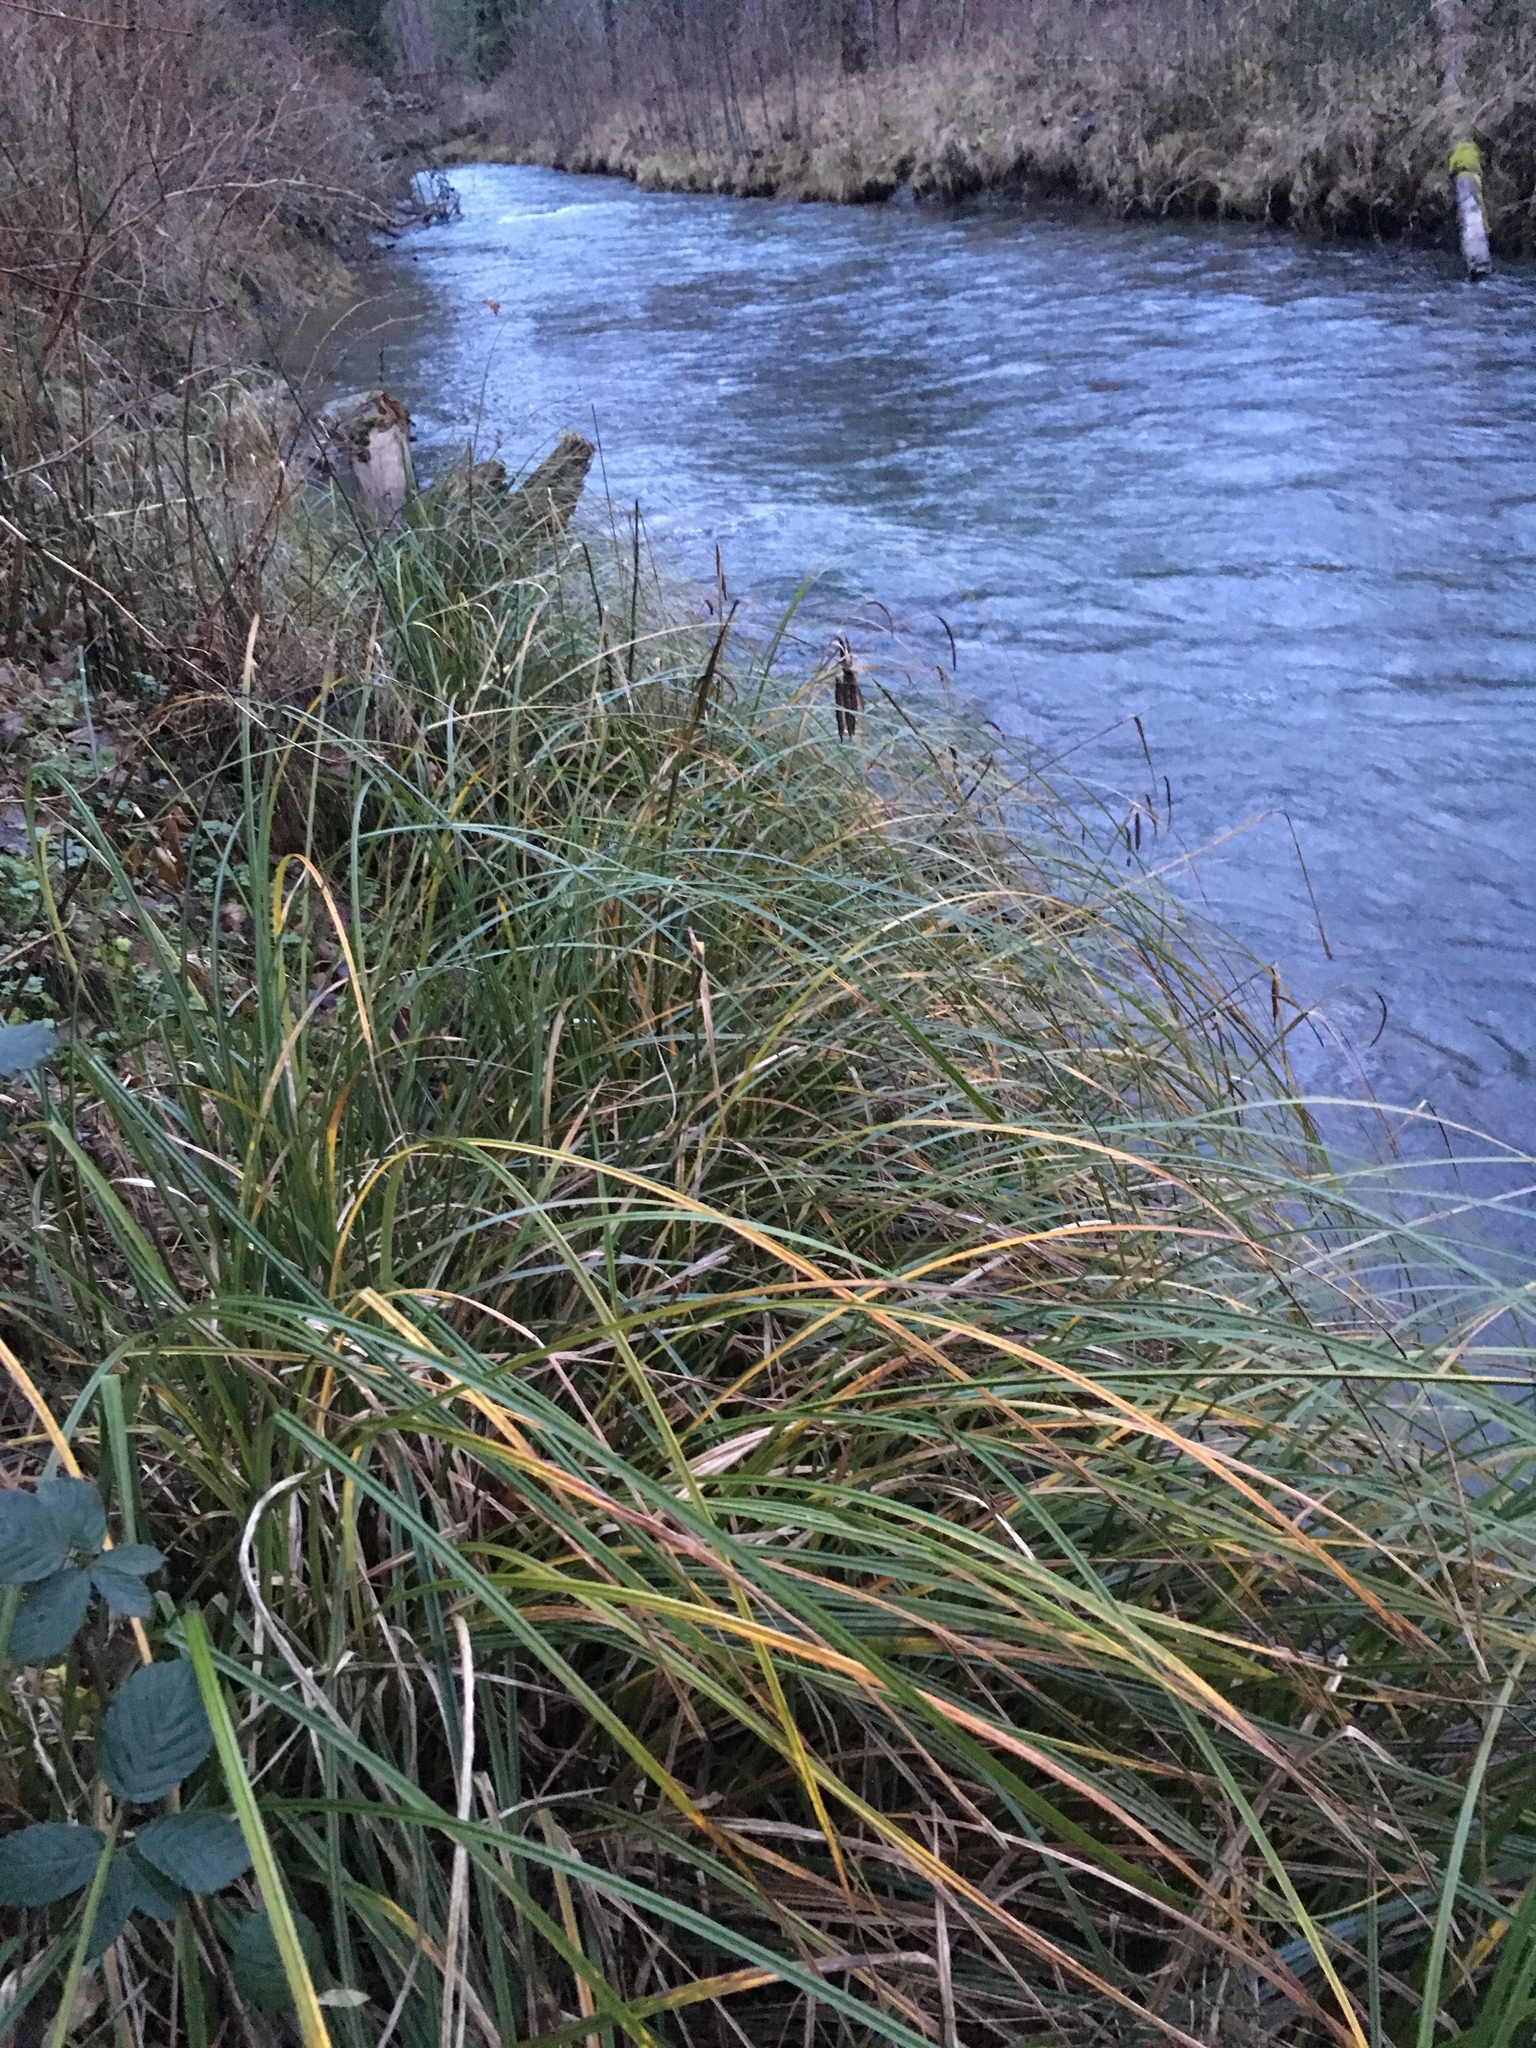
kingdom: Plantae
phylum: Tracheophyta
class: Liliopsida
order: Poales
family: Cyperaceae
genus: Carex
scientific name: Carex obnupta
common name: Slough sedge
